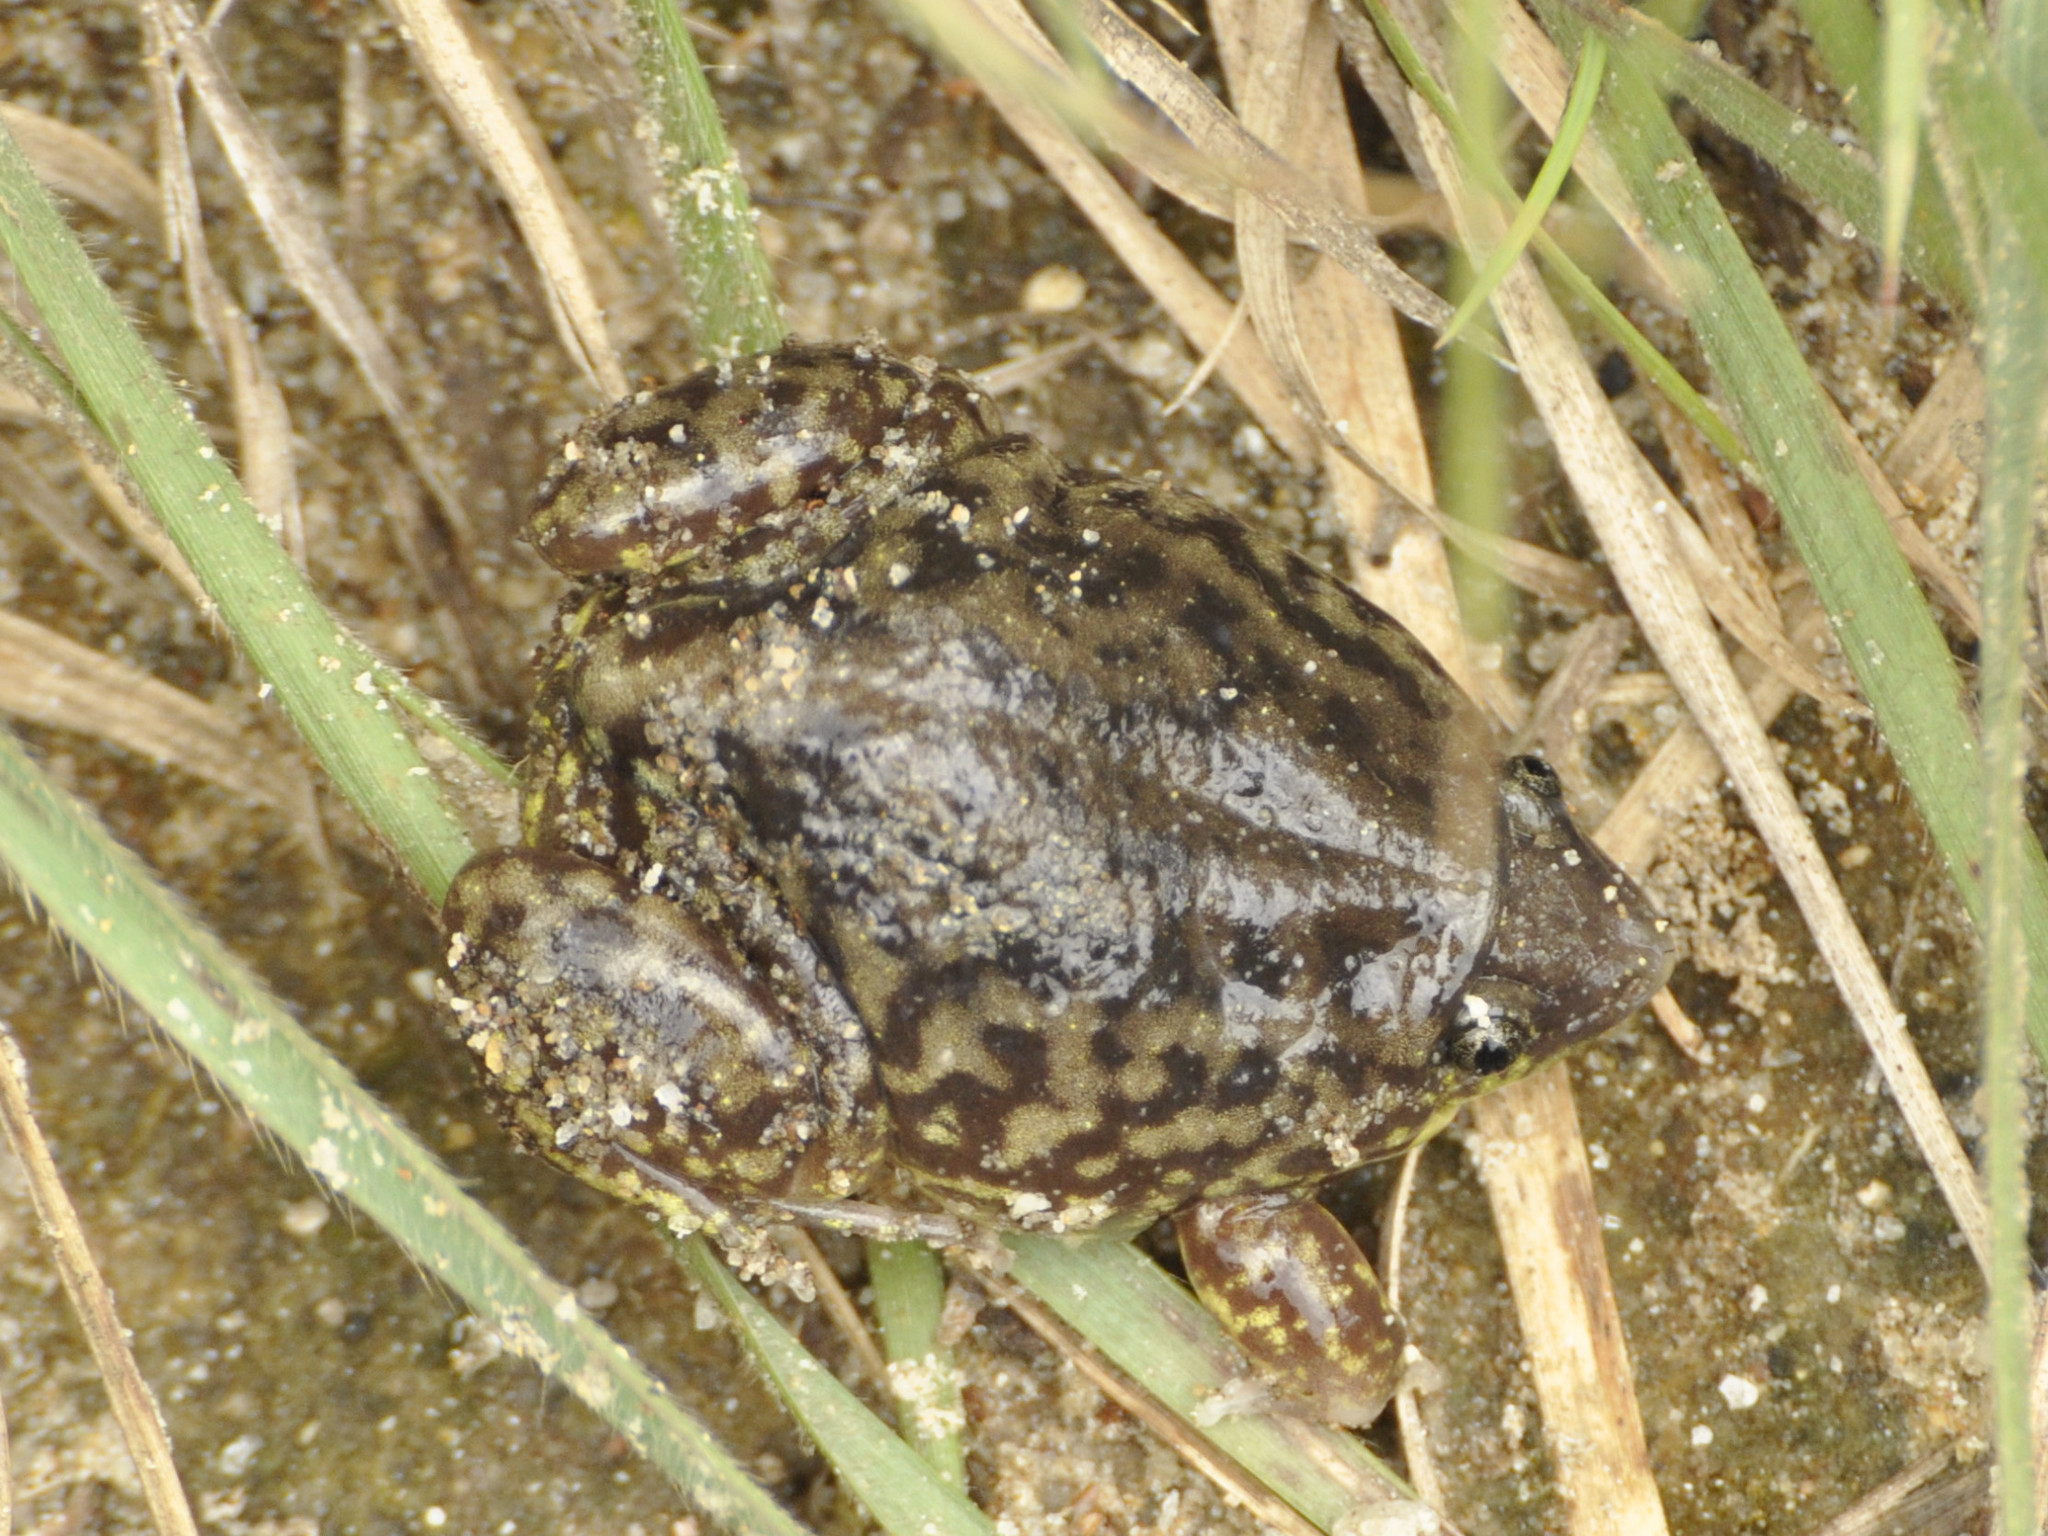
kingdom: Animalia
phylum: Chordata
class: Amphibia
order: Anura
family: Hemisotidae
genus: Hemisus
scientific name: Hemisus marmoratus
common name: Mottled shovel-nosed frog
